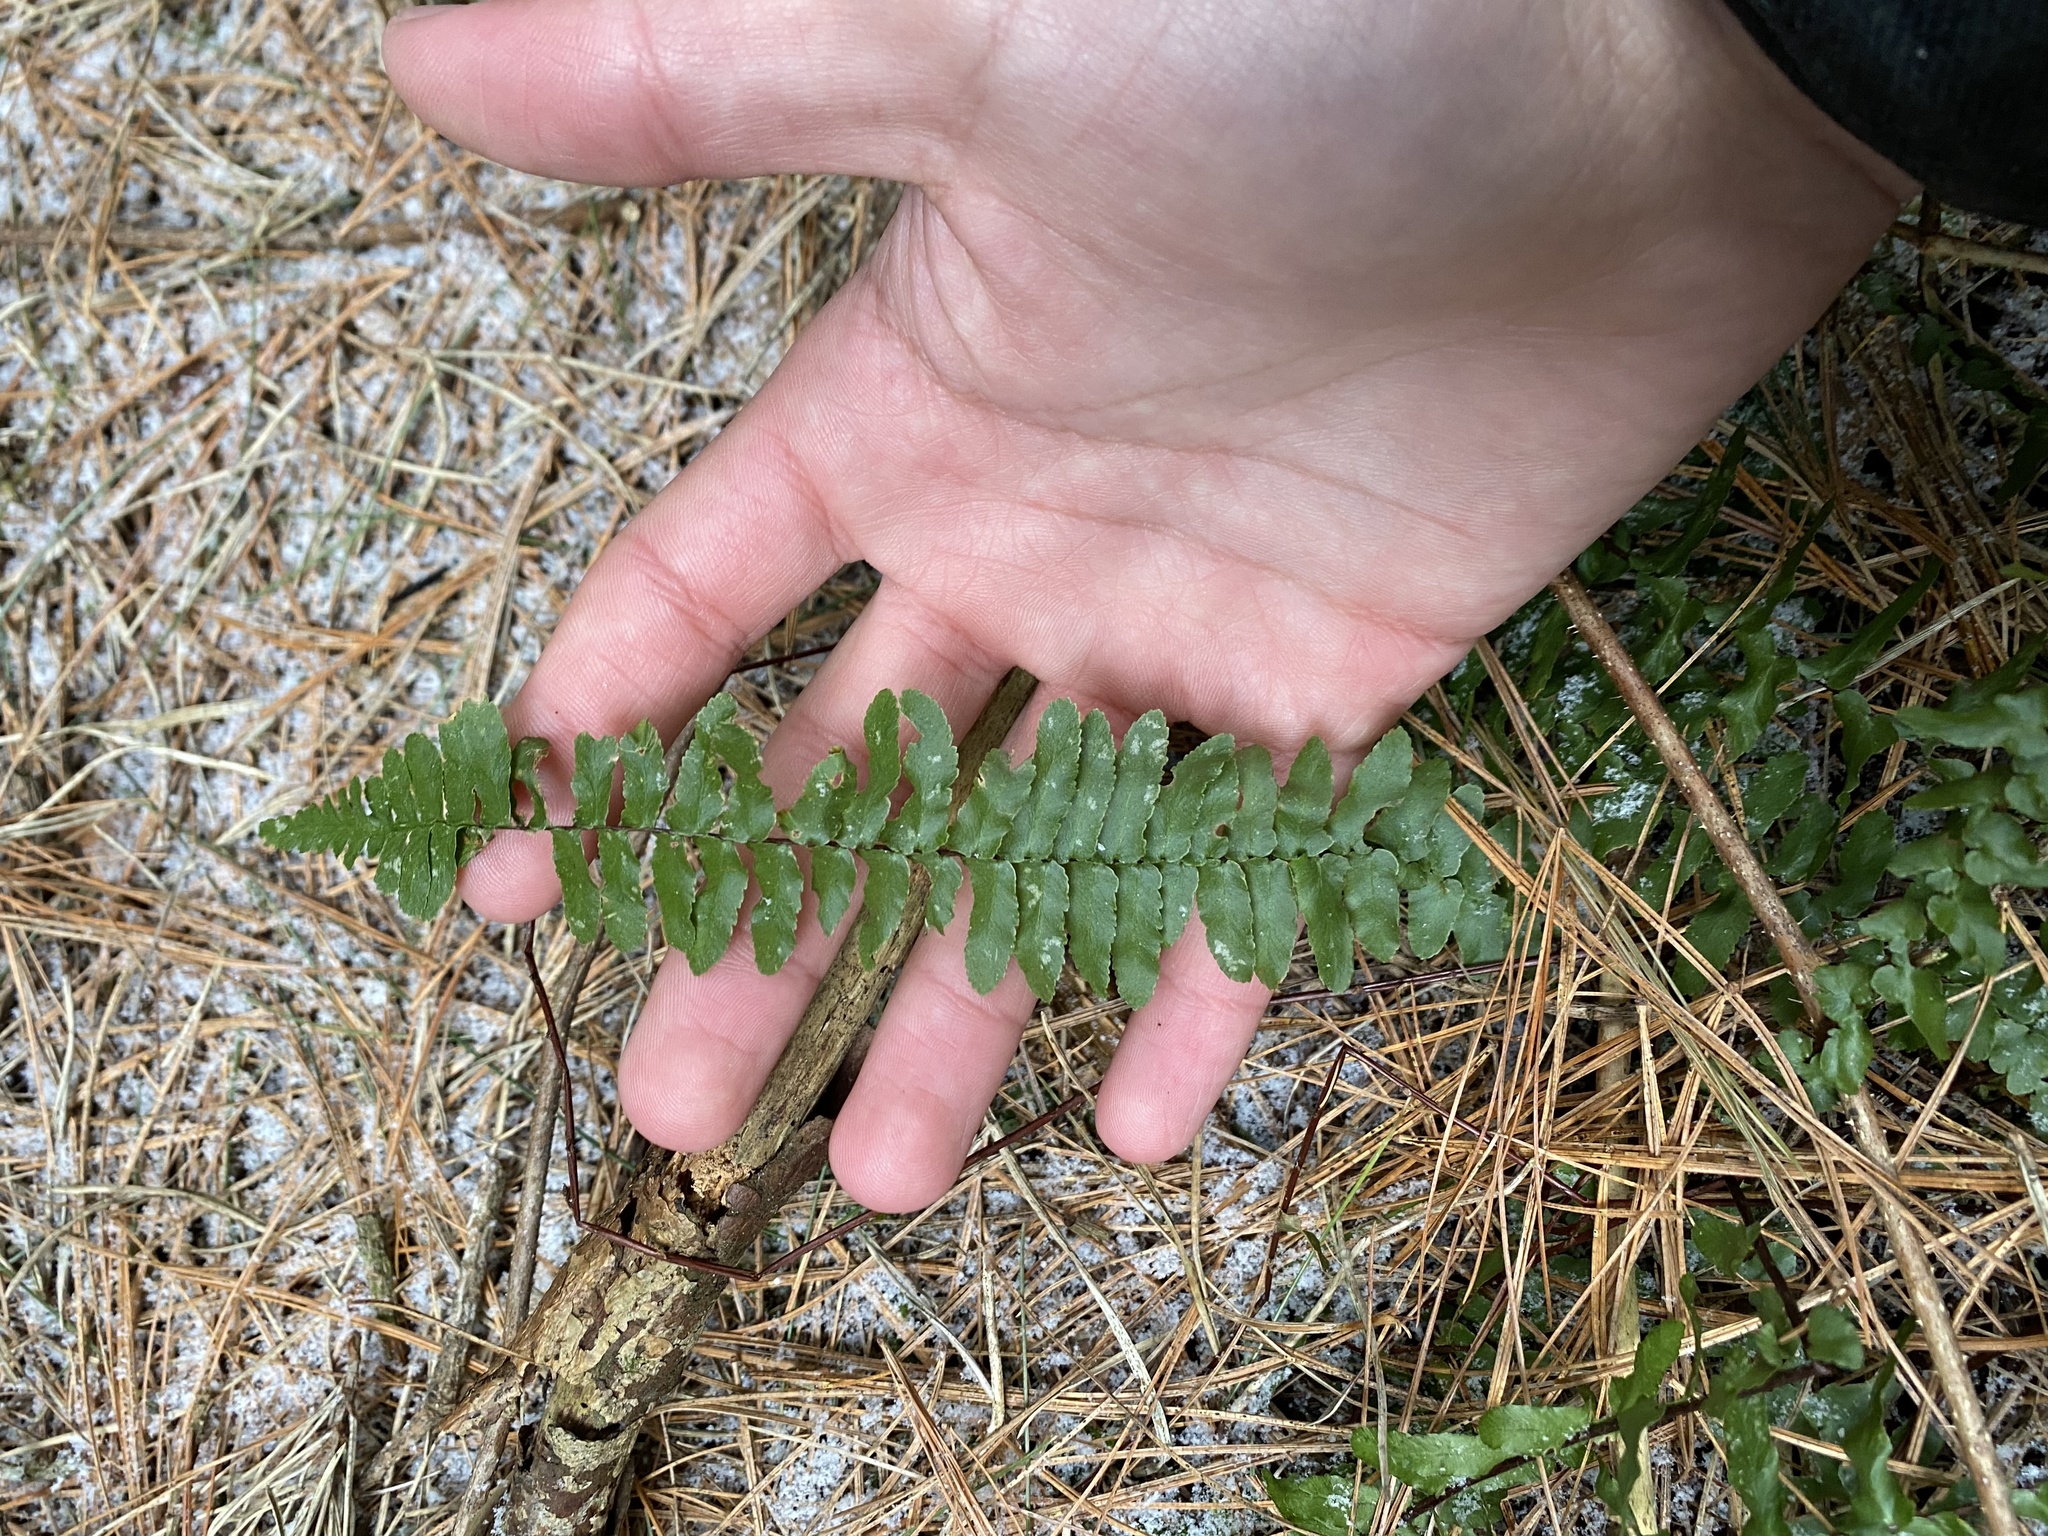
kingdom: Plantae
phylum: Tracheophyta
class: Polypodiopsida
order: Polypodiales
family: Aspleniaceae
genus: Asplenium
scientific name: Asplenium platyneuron
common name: Ebony spleenwort
